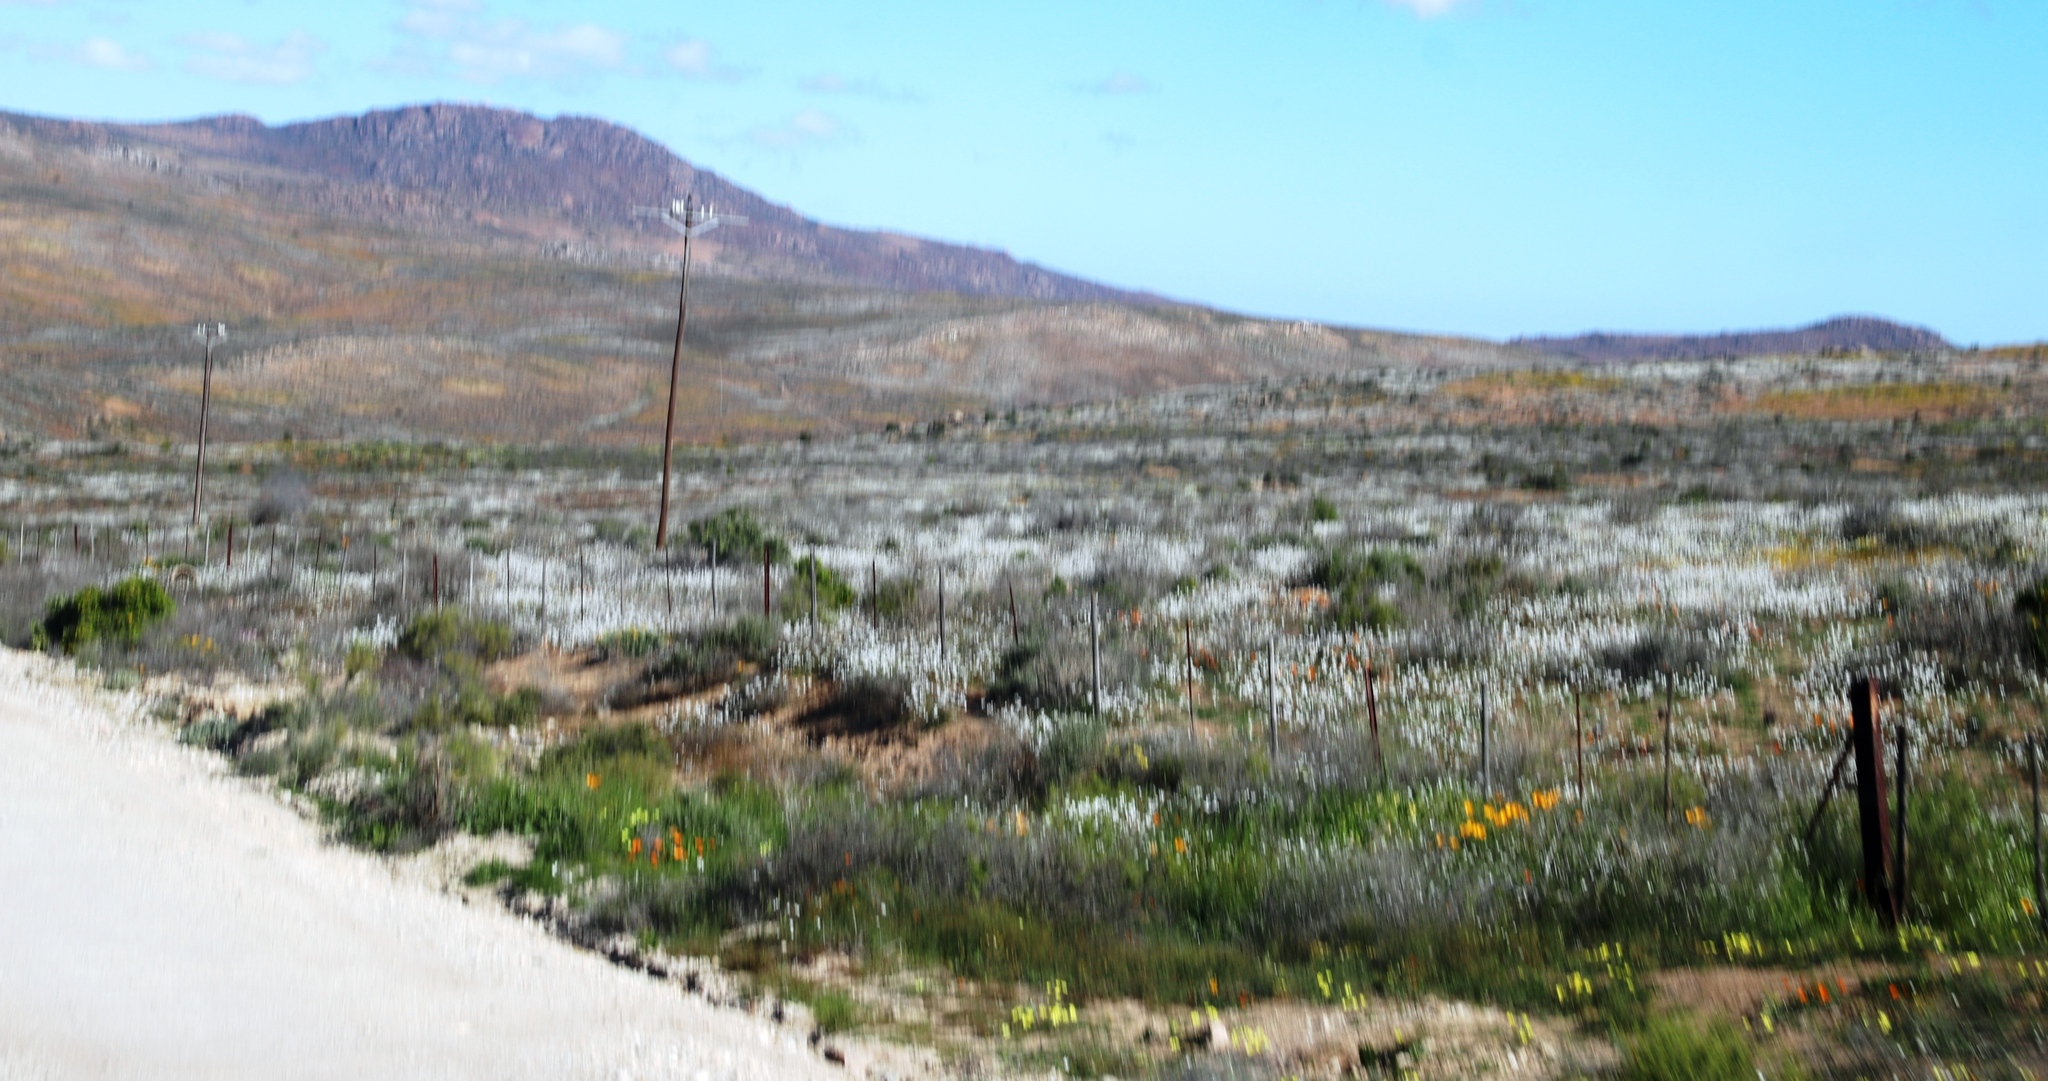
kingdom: Plantae
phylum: Tracheophyta
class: Magnoliopsida
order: Brassicales
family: Brassicaceae
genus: Heliophila
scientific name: Heliophila variabilis
